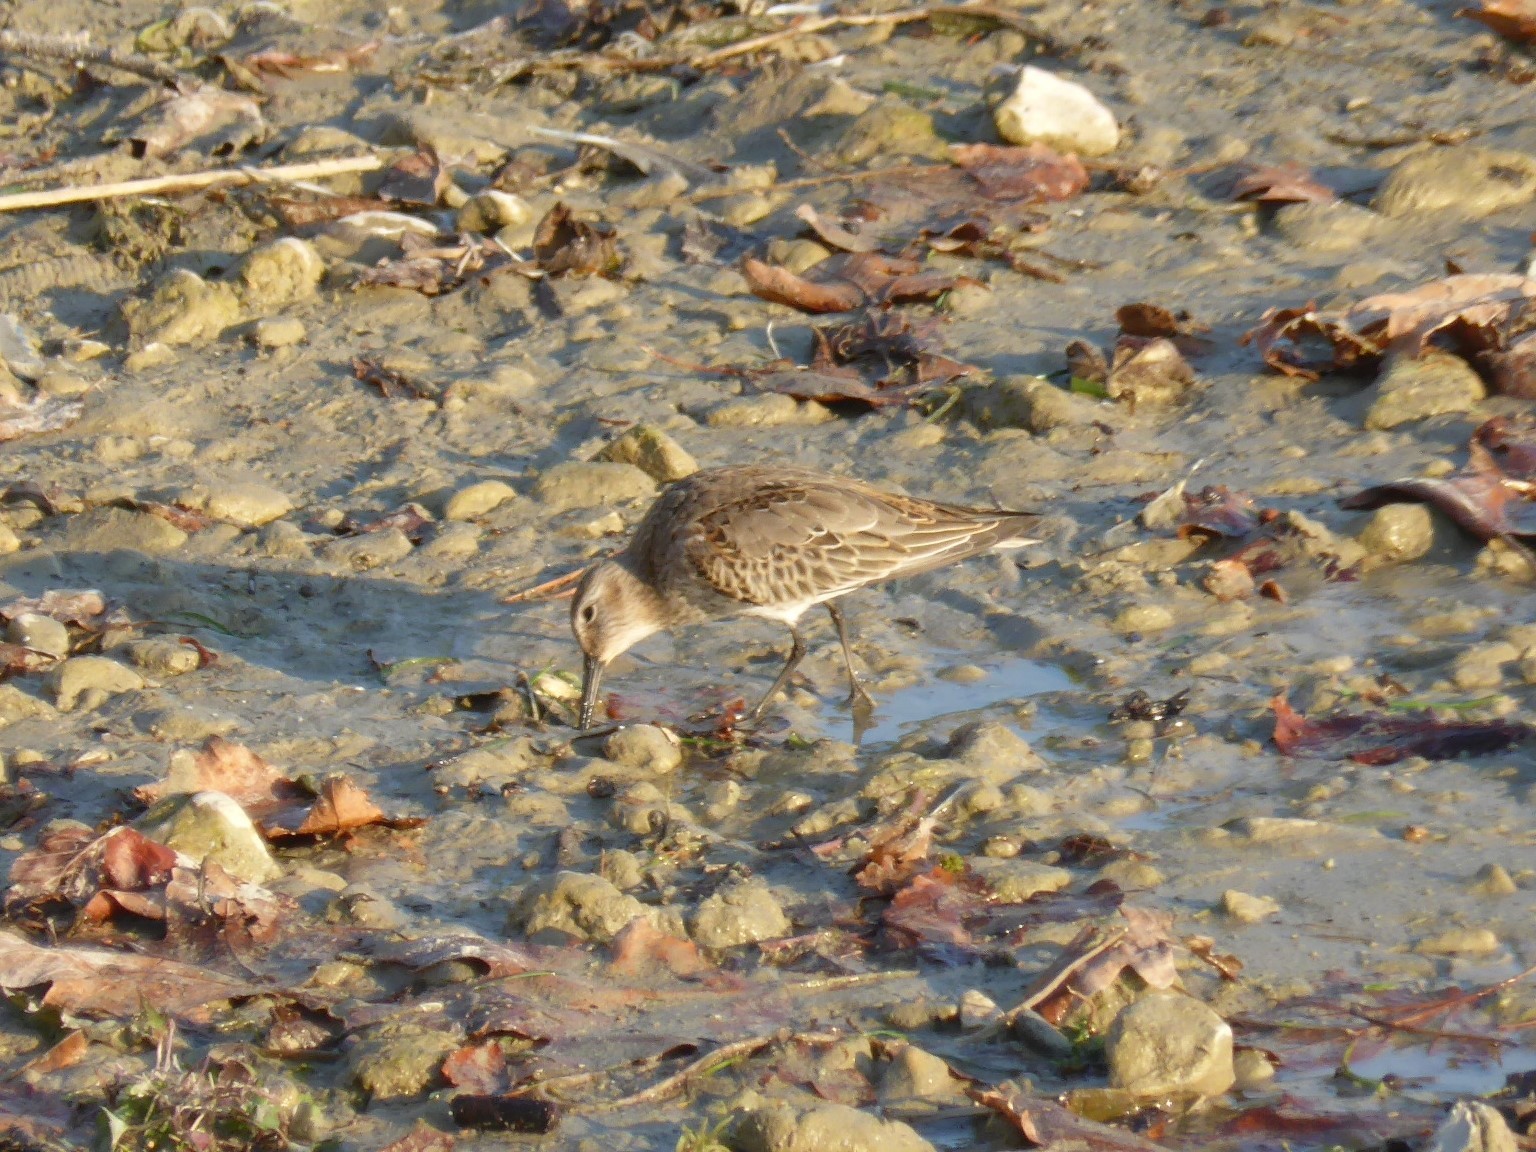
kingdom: Animalia
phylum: Chordata
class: Aves
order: Charadriiformes
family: Scolopacidae
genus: Calidris
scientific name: Calidris alpina
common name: Dunlin
